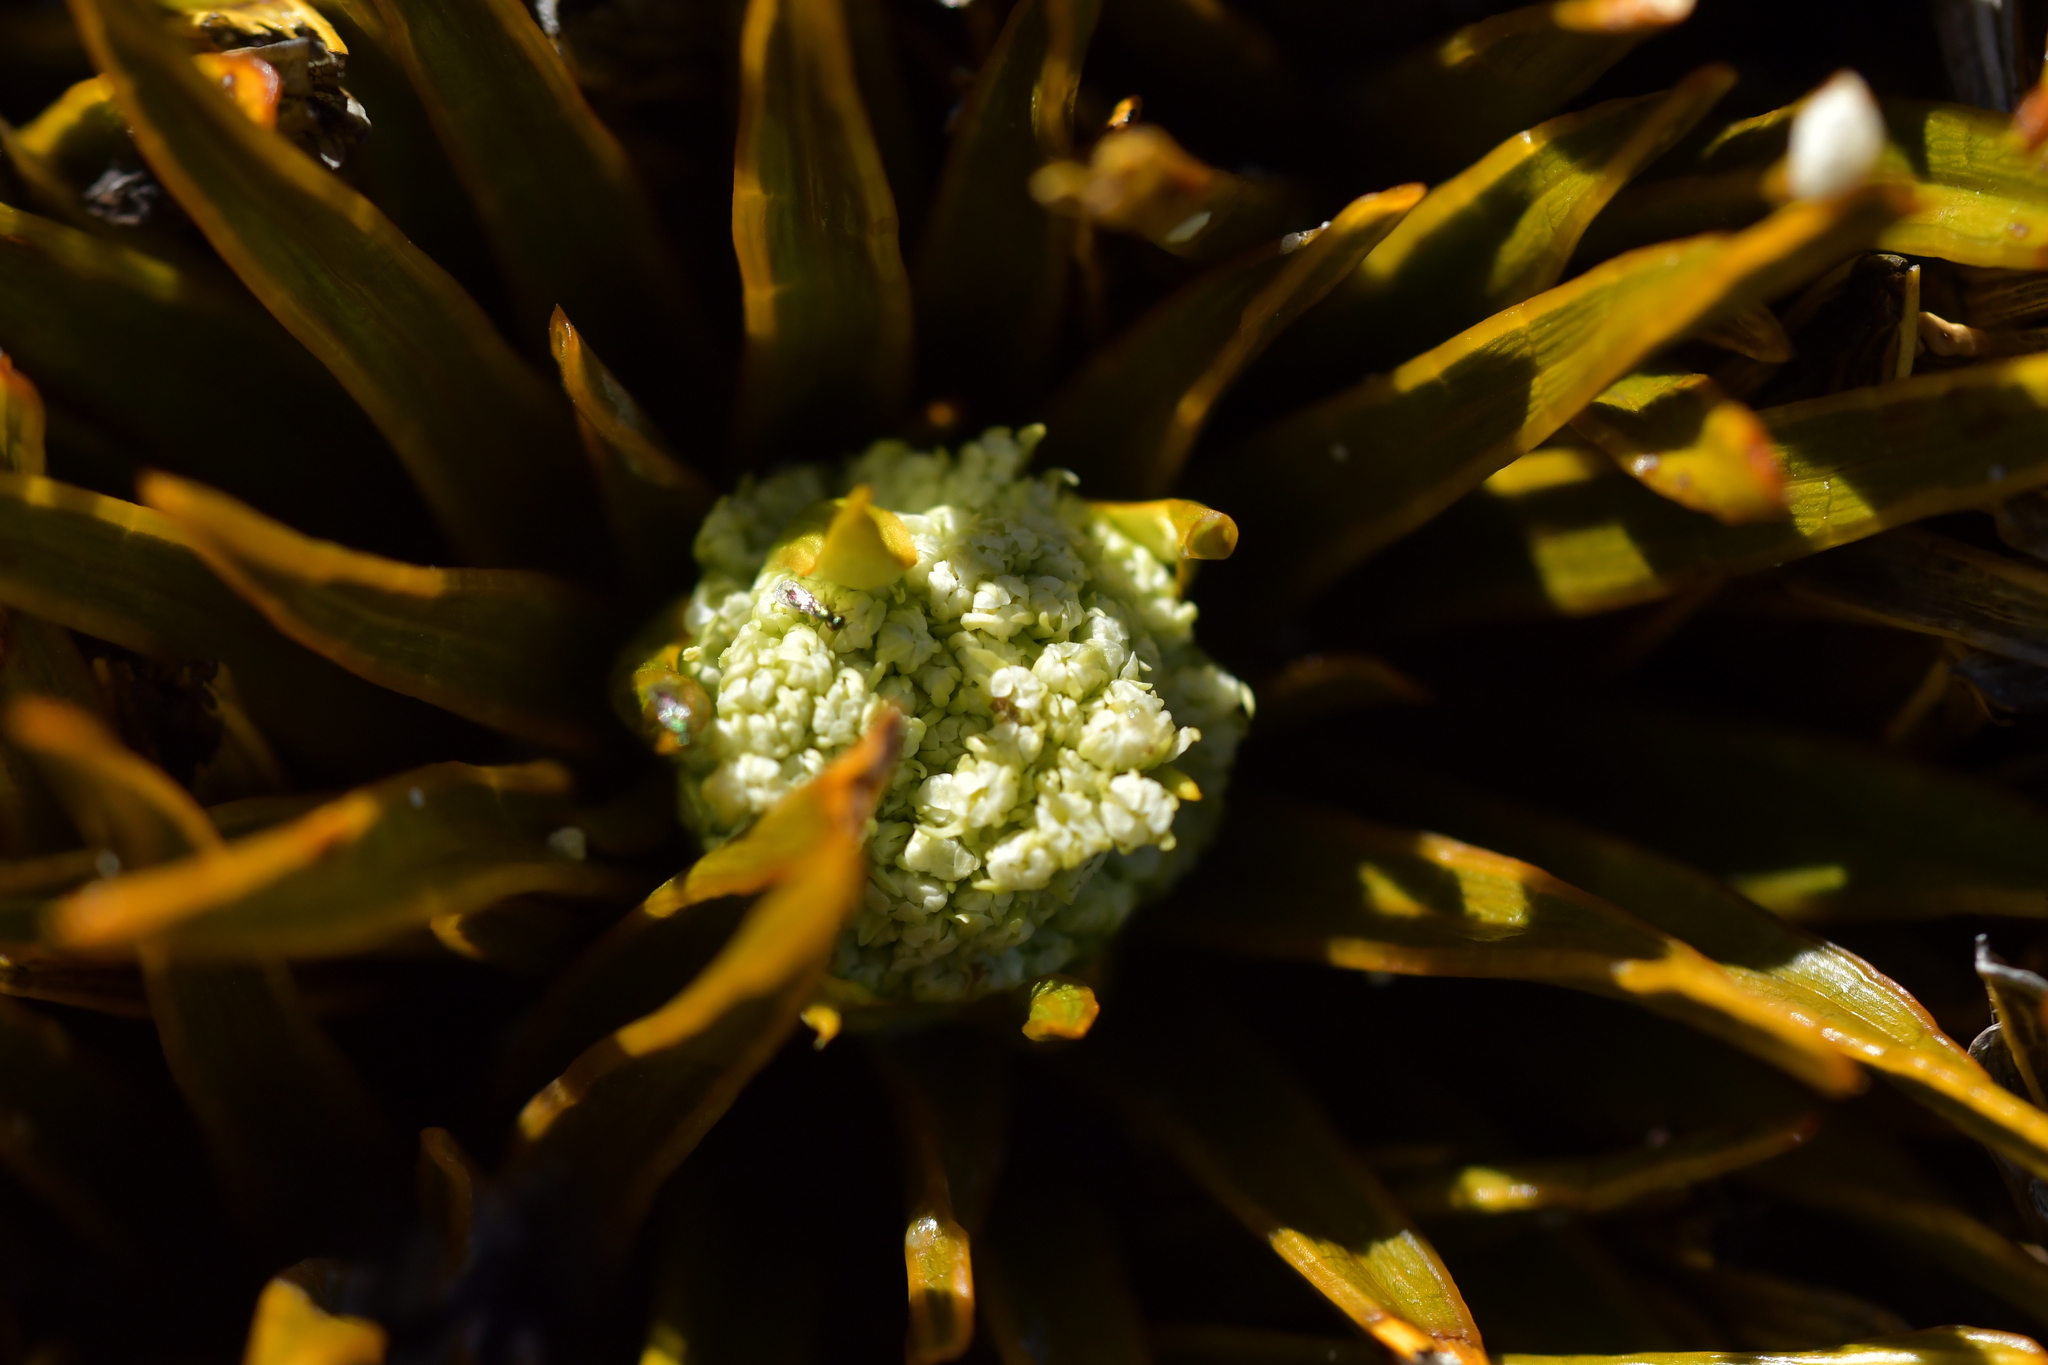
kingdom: Plantae
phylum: Tracheophyta
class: Magnoliopsida
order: Apiales
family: Apiaceae
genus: Aciphylla
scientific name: Aciphylla simplex
